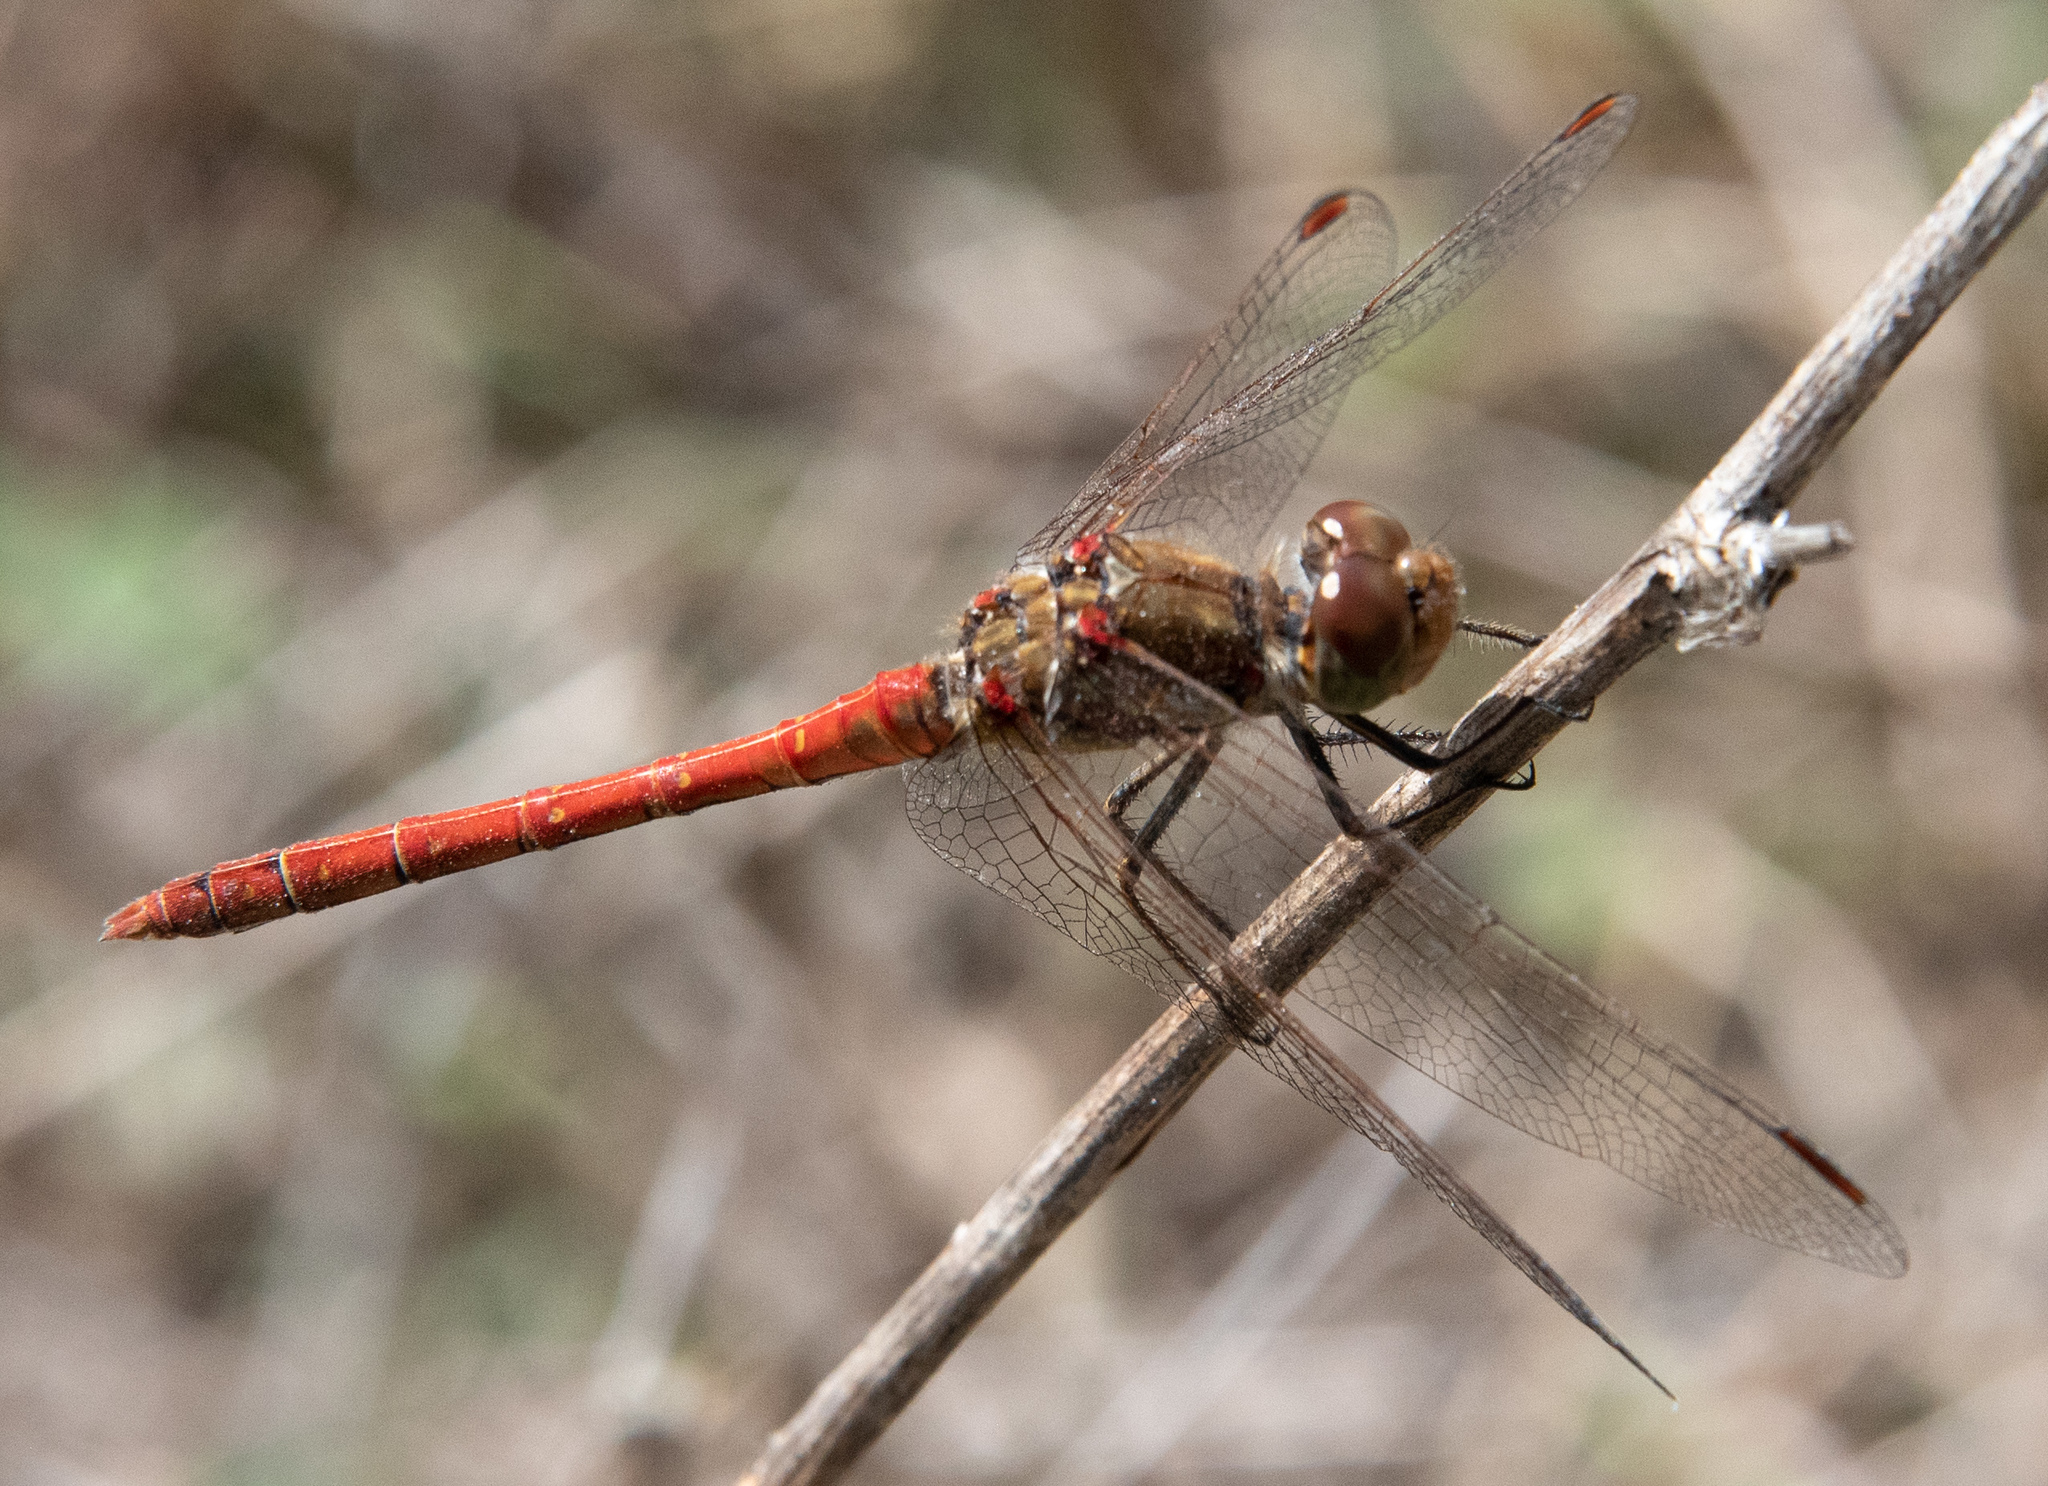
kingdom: Animalia
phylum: Arthropoda
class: Insecta
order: Odonata
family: Libellulidae
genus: Sympetrum
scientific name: Sympetrum striolatum
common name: Common darter
